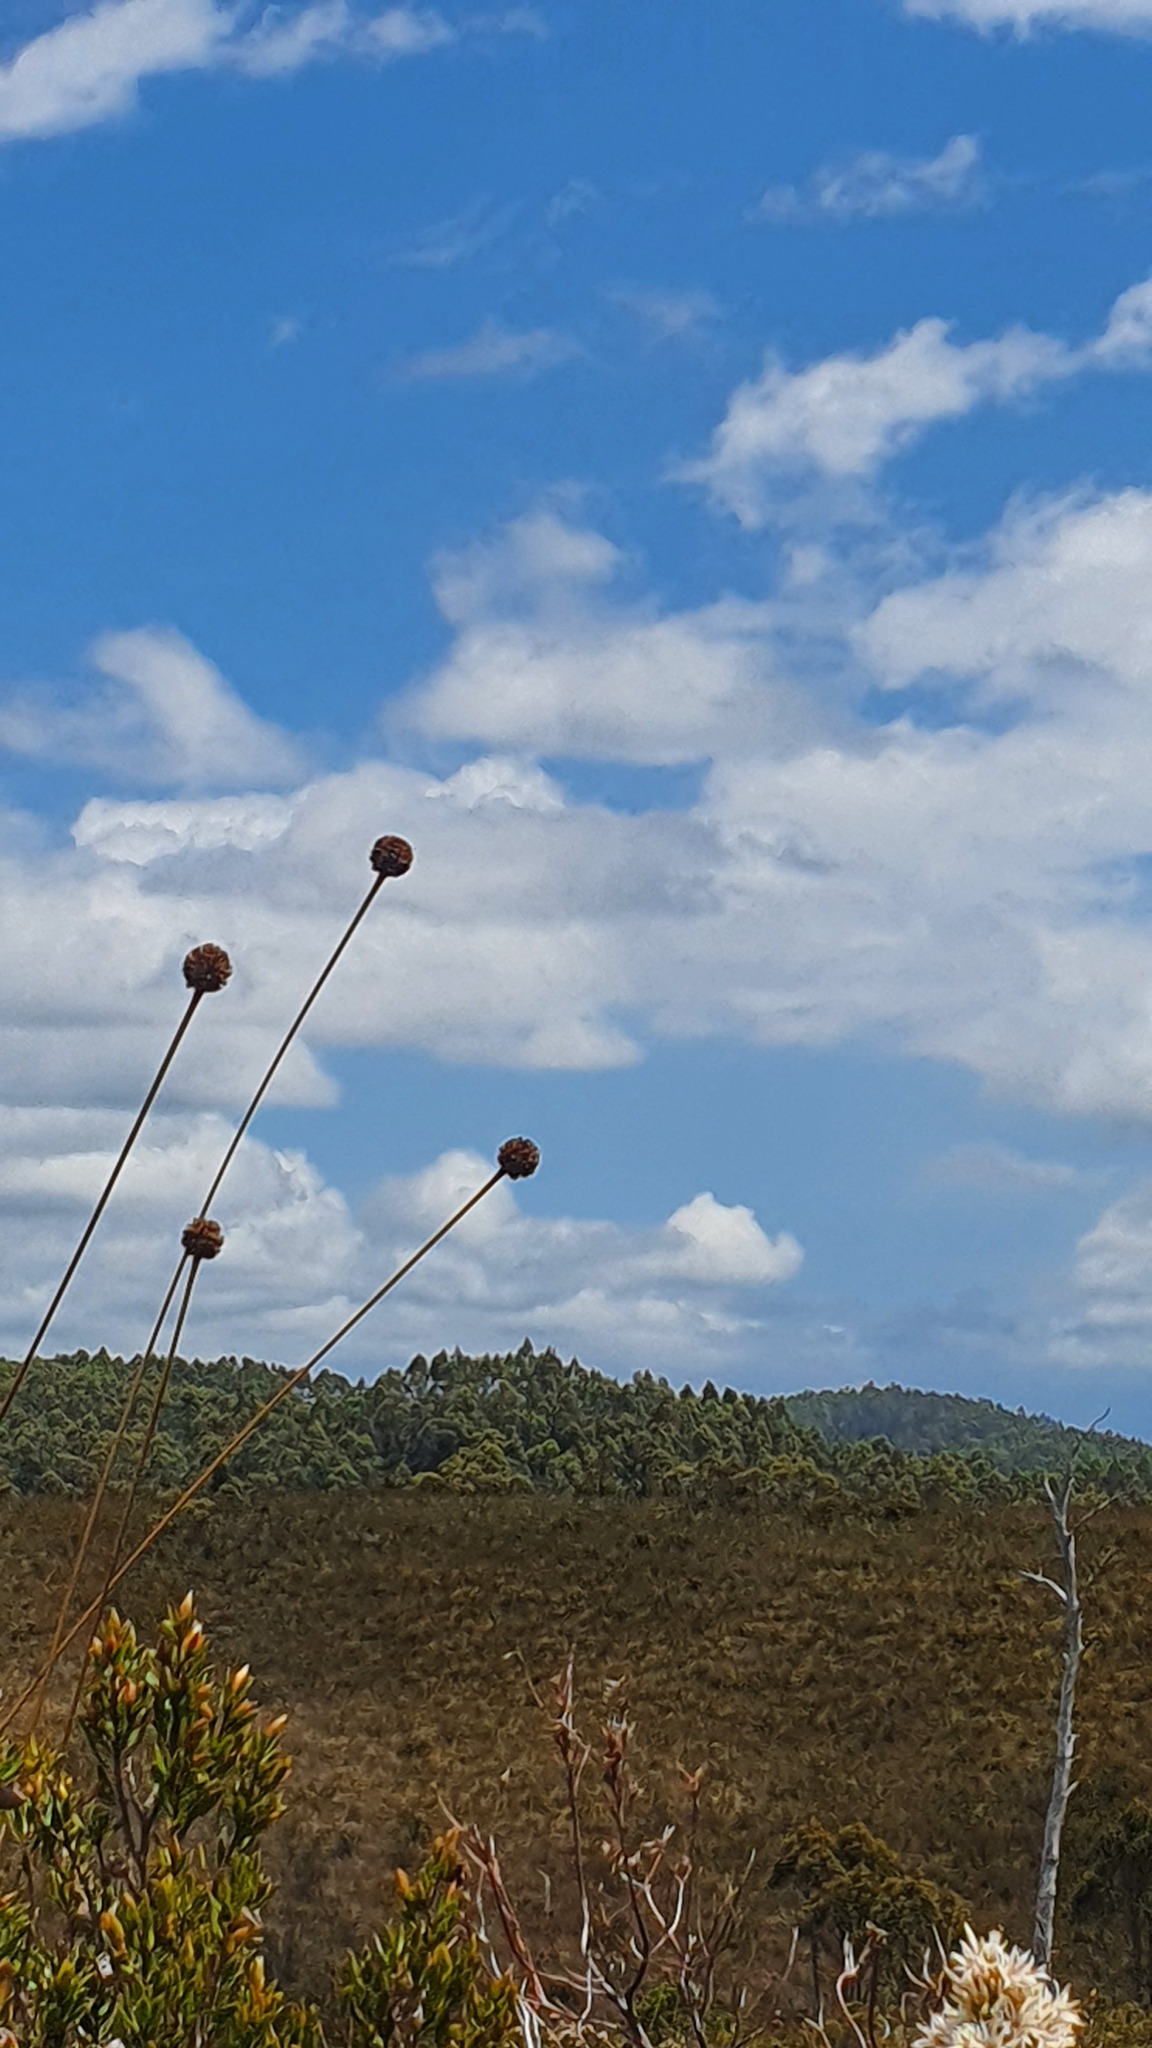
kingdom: Plantae
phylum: Tracheophyta
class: Liliopsida
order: Poales
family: Cyperaceae
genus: Gymnoschoenus
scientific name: Gymnoschoenus sphaerocephalus
